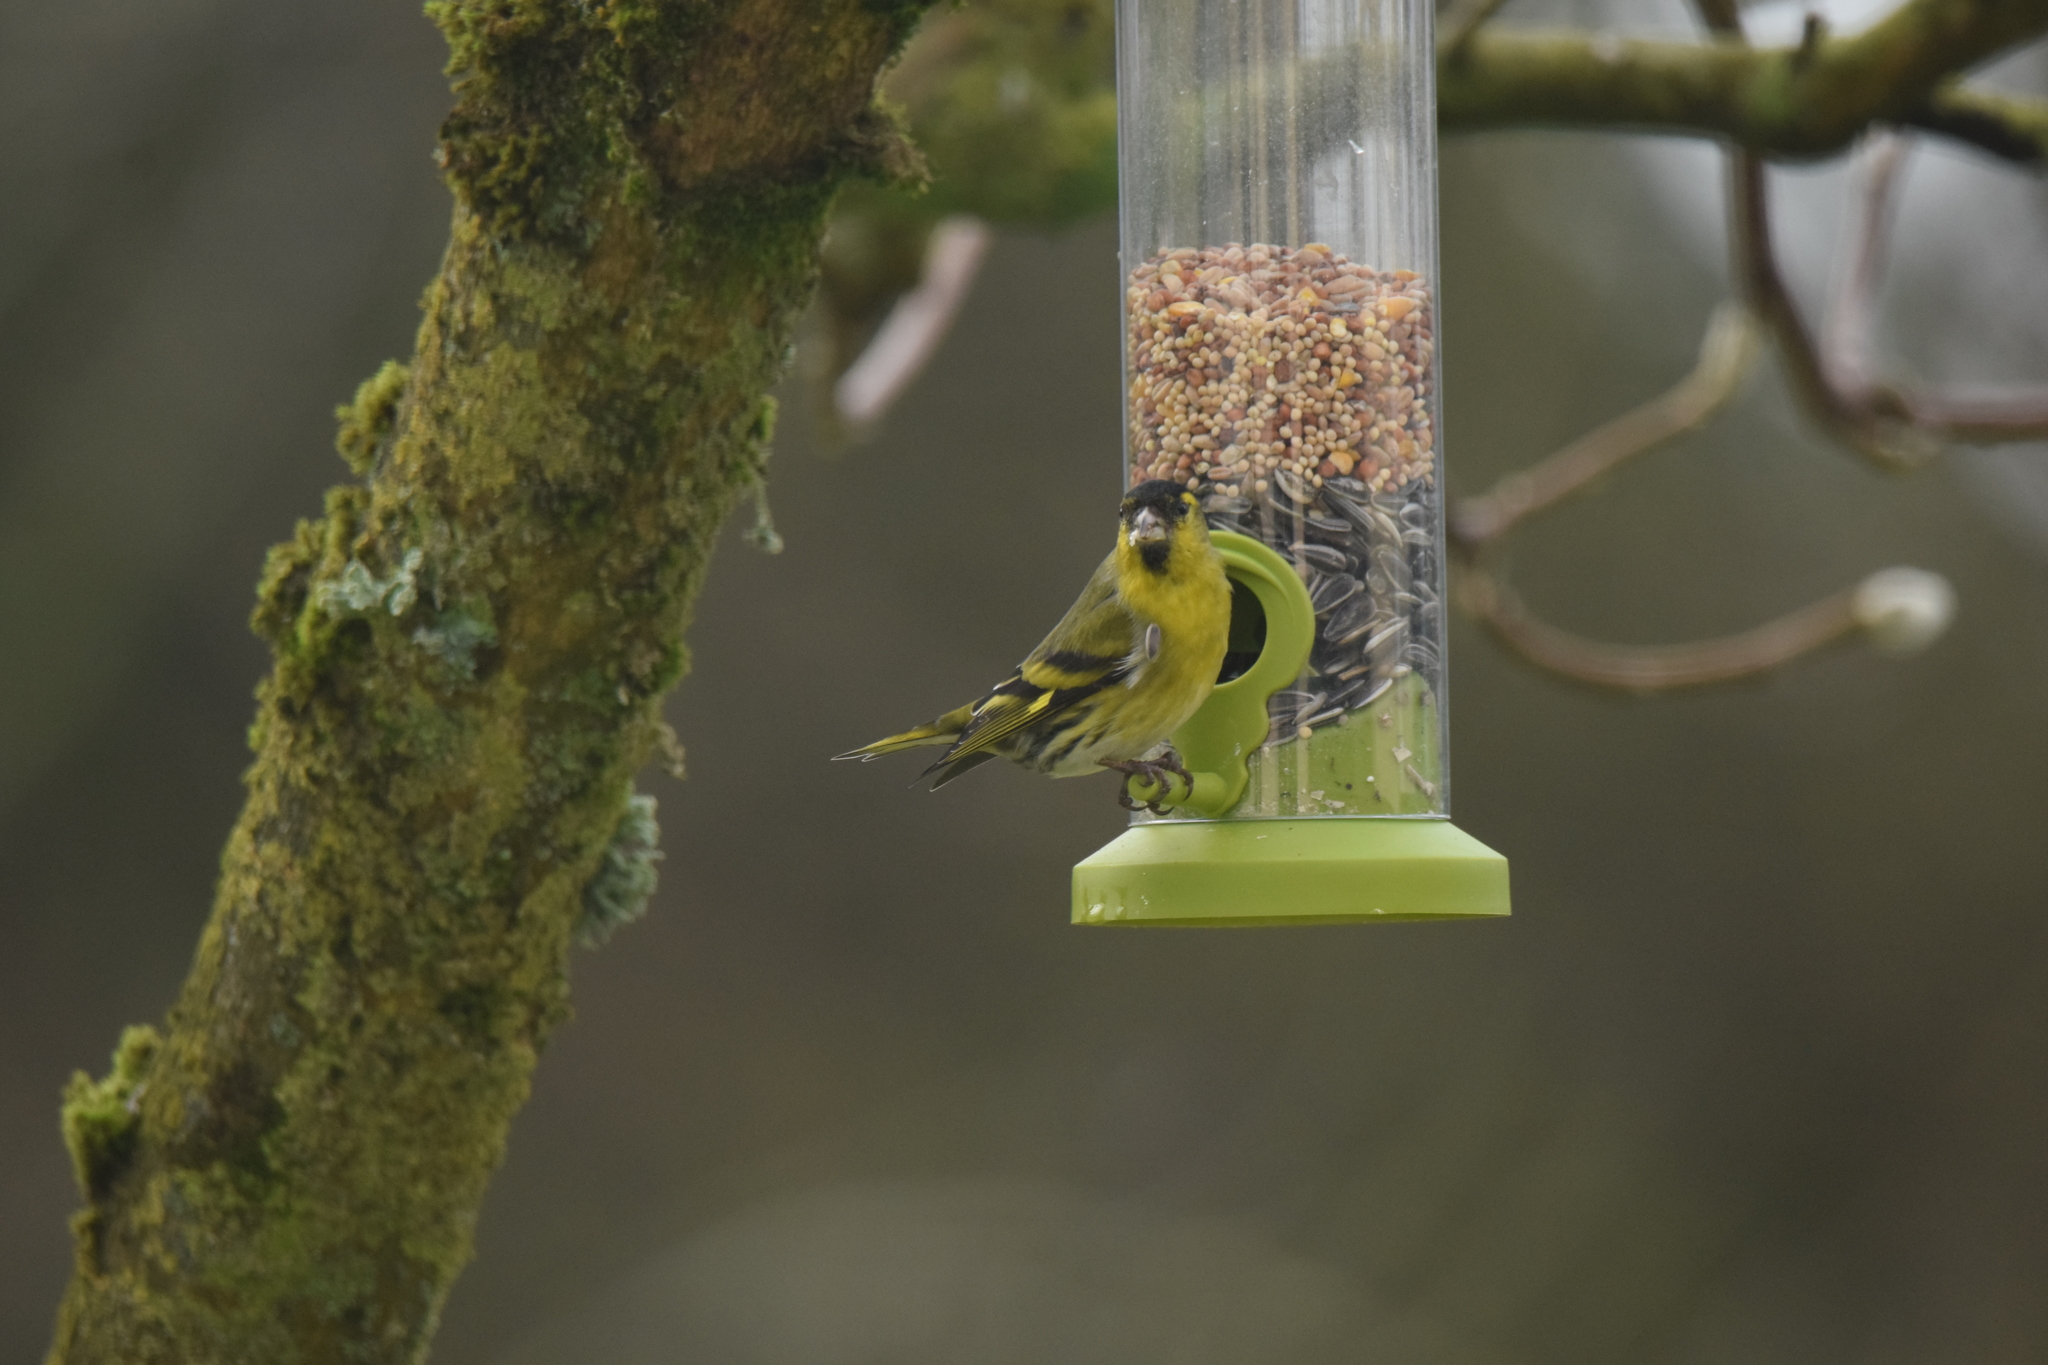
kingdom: Animalia
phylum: Chordata
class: Aves
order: Passeriformes
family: Fringillidae
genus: Spinus
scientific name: Spinus spinus
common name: Eurasian siskin
